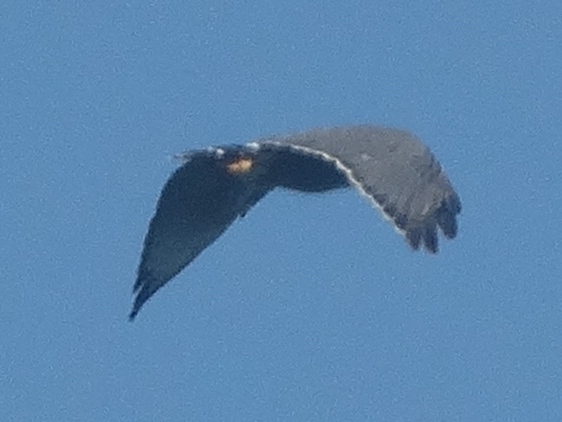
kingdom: Animalia
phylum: Chordata
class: Aves
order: Accipitriformes
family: Accipitridae
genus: Buteo
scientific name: Buteo nitidus
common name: Grey-lined hawk
